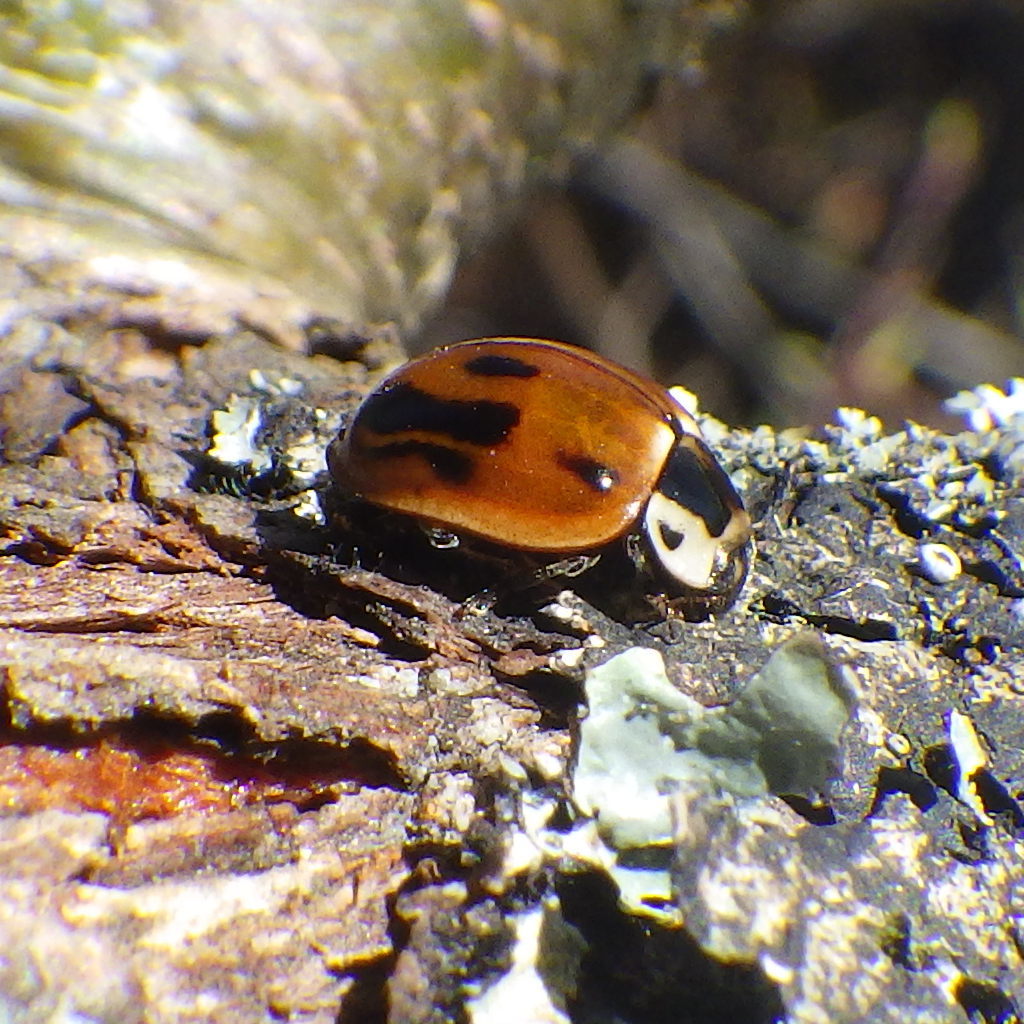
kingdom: Animalia
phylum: Arthropoda
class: Insecta
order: Coleoptera
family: Coccinellidae
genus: Myzia
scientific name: Myzia pullata
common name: Streaked lady beetle
